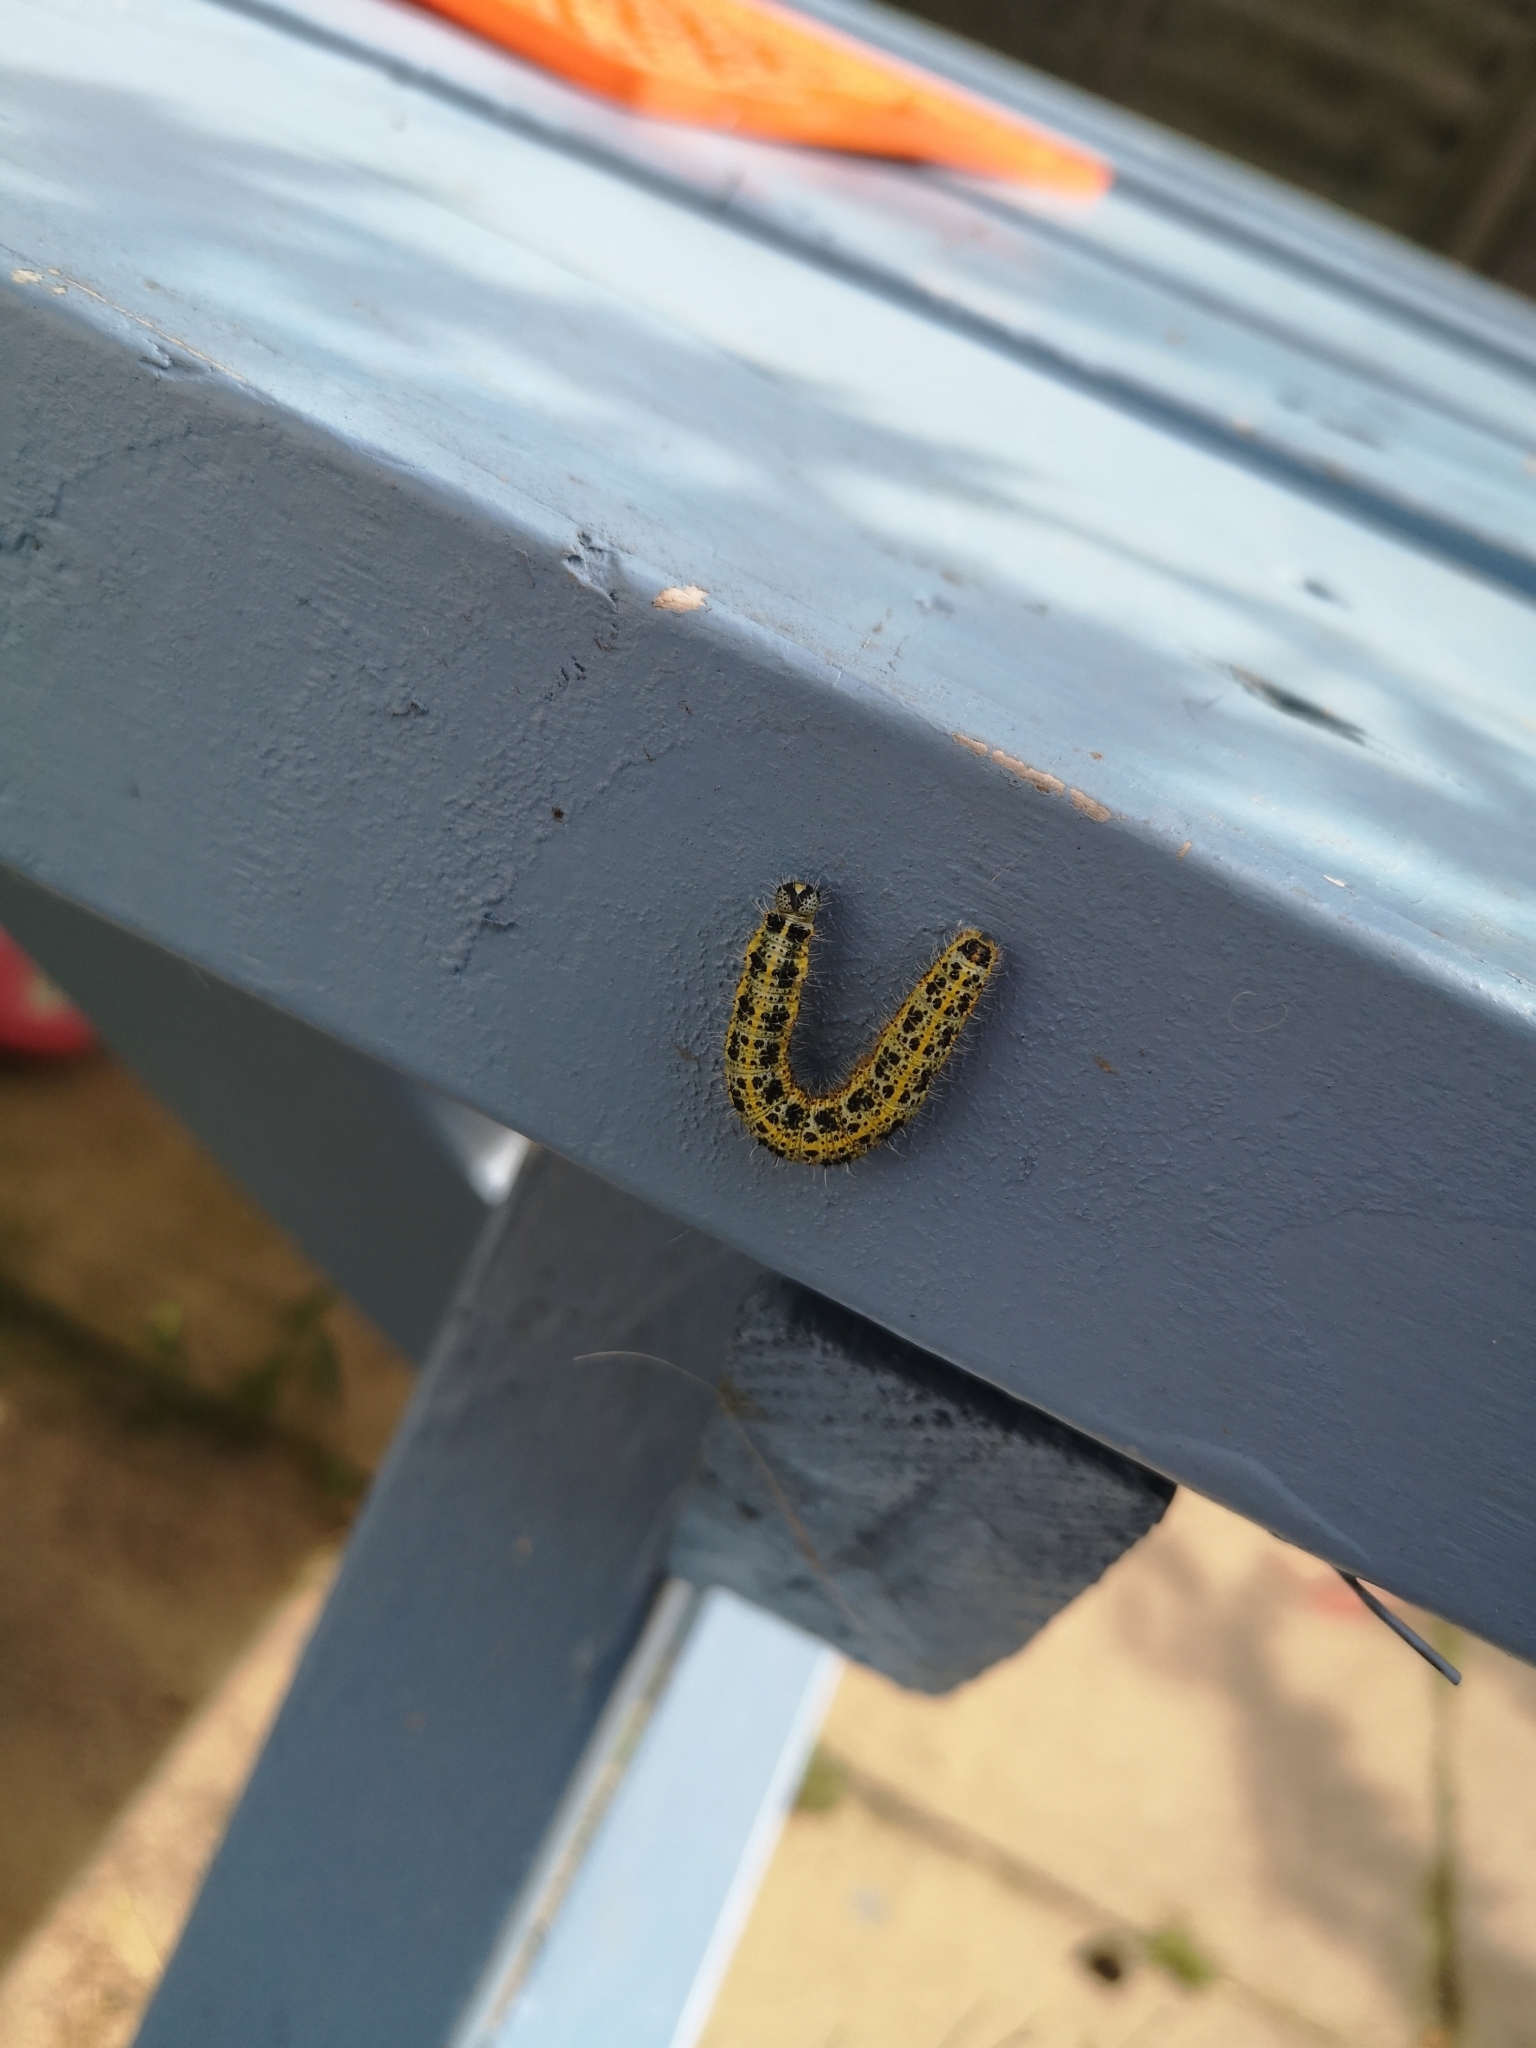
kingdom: Animalia
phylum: Arthropoda
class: Insecta
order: Lepidoptera
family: Pieridae
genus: Pieris
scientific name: Pieris brassicae
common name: Large white
